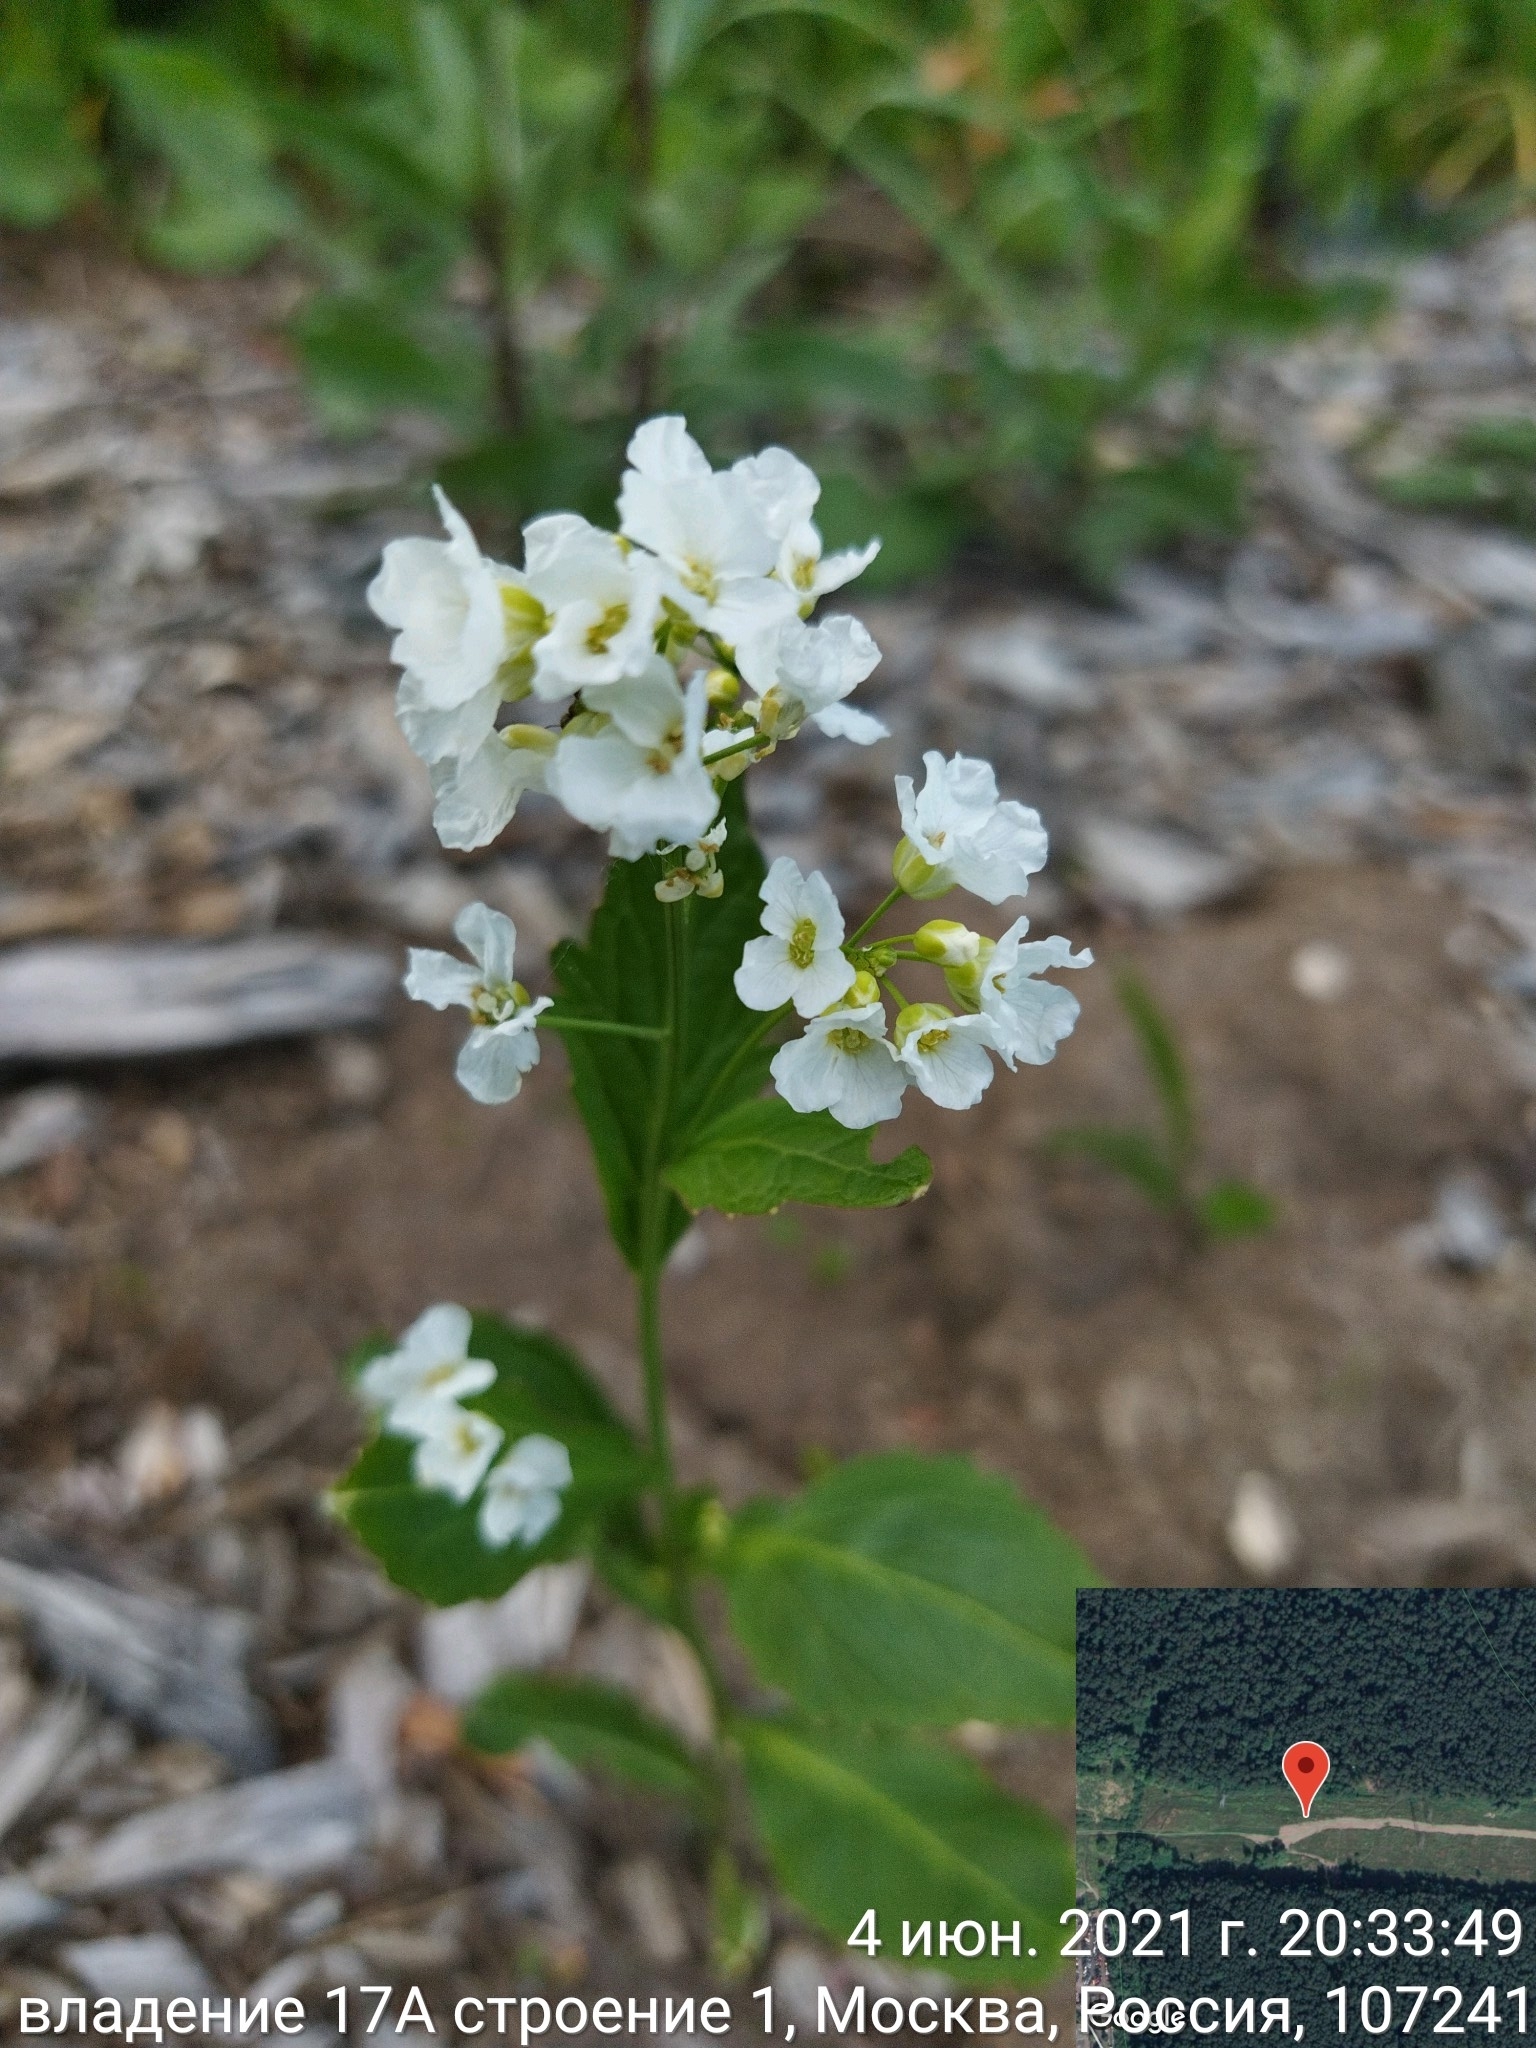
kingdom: Plantae
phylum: Tracheophyta
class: Magnoliopsida
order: Brassicales
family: Brassicaceae
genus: Armoracia
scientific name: Armoracia rusticana
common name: Horseradish
